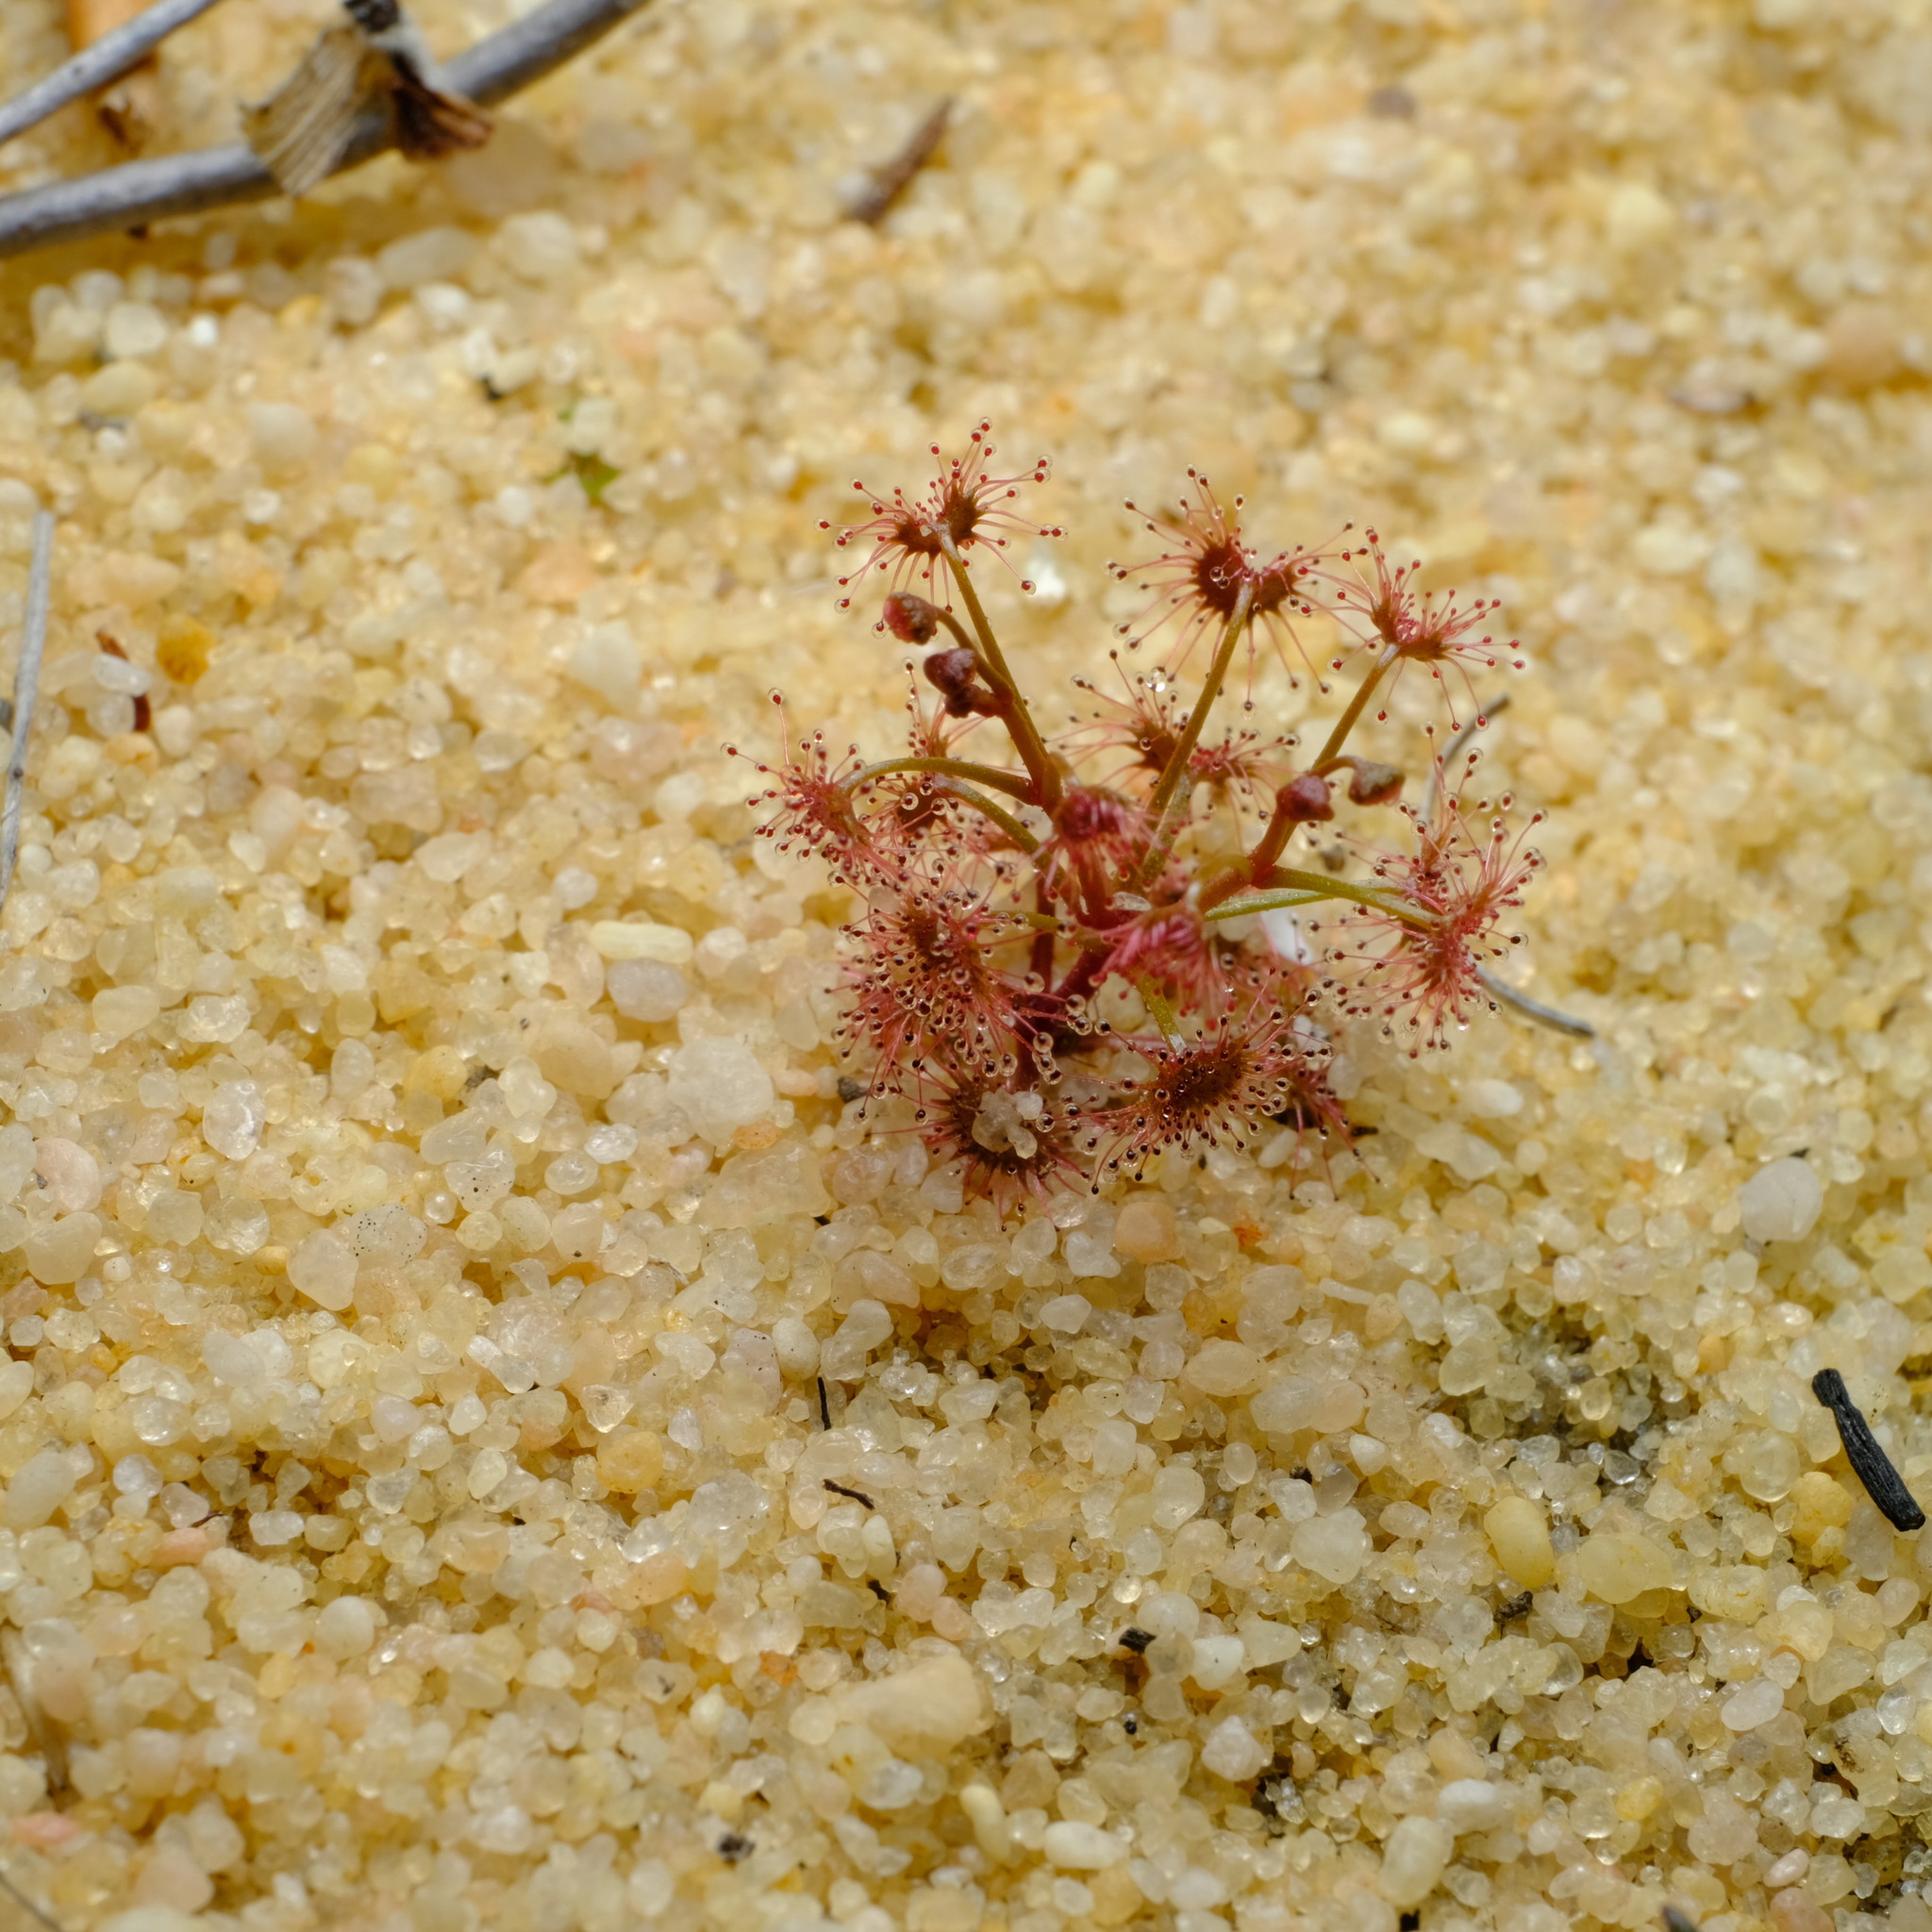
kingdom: Plantae
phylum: Tracheophyta
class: Magnoliopsida
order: Caryophyllales
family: Droseraceae
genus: Drosera
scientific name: Drosera stolonifera
